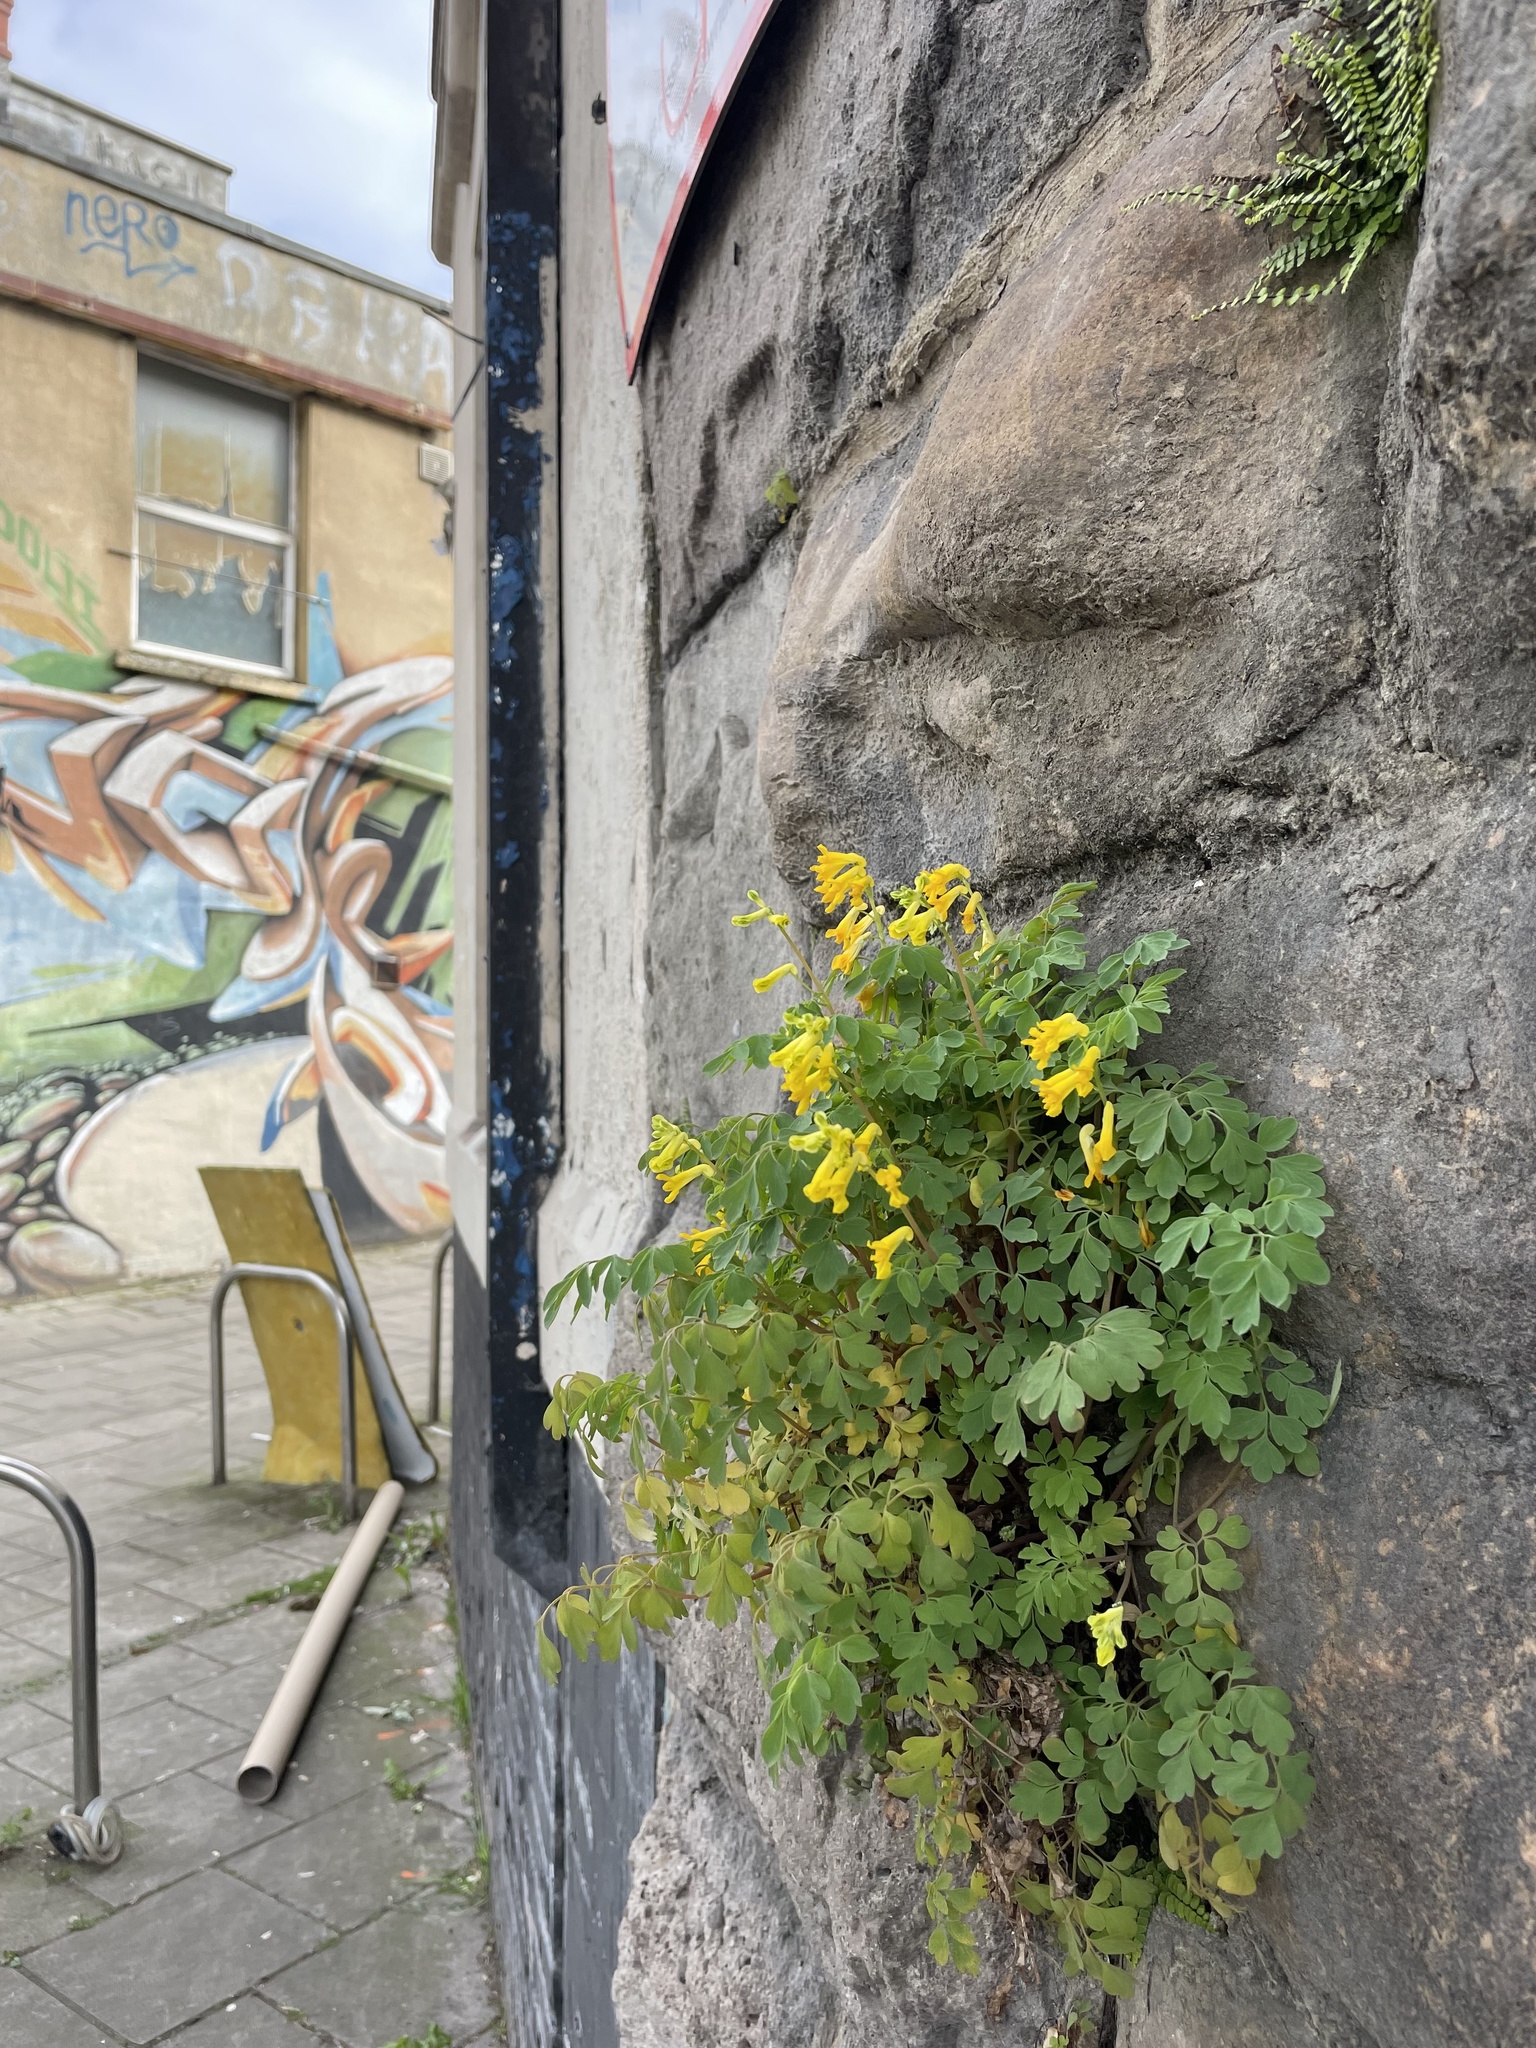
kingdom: Plantae
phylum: Tracheophyta
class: Magnoliopsida
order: Ranunculales
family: Papaveraceae
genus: Pseudofumaria
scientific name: Pseudofumaria lutea
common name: Yellow corydalis
